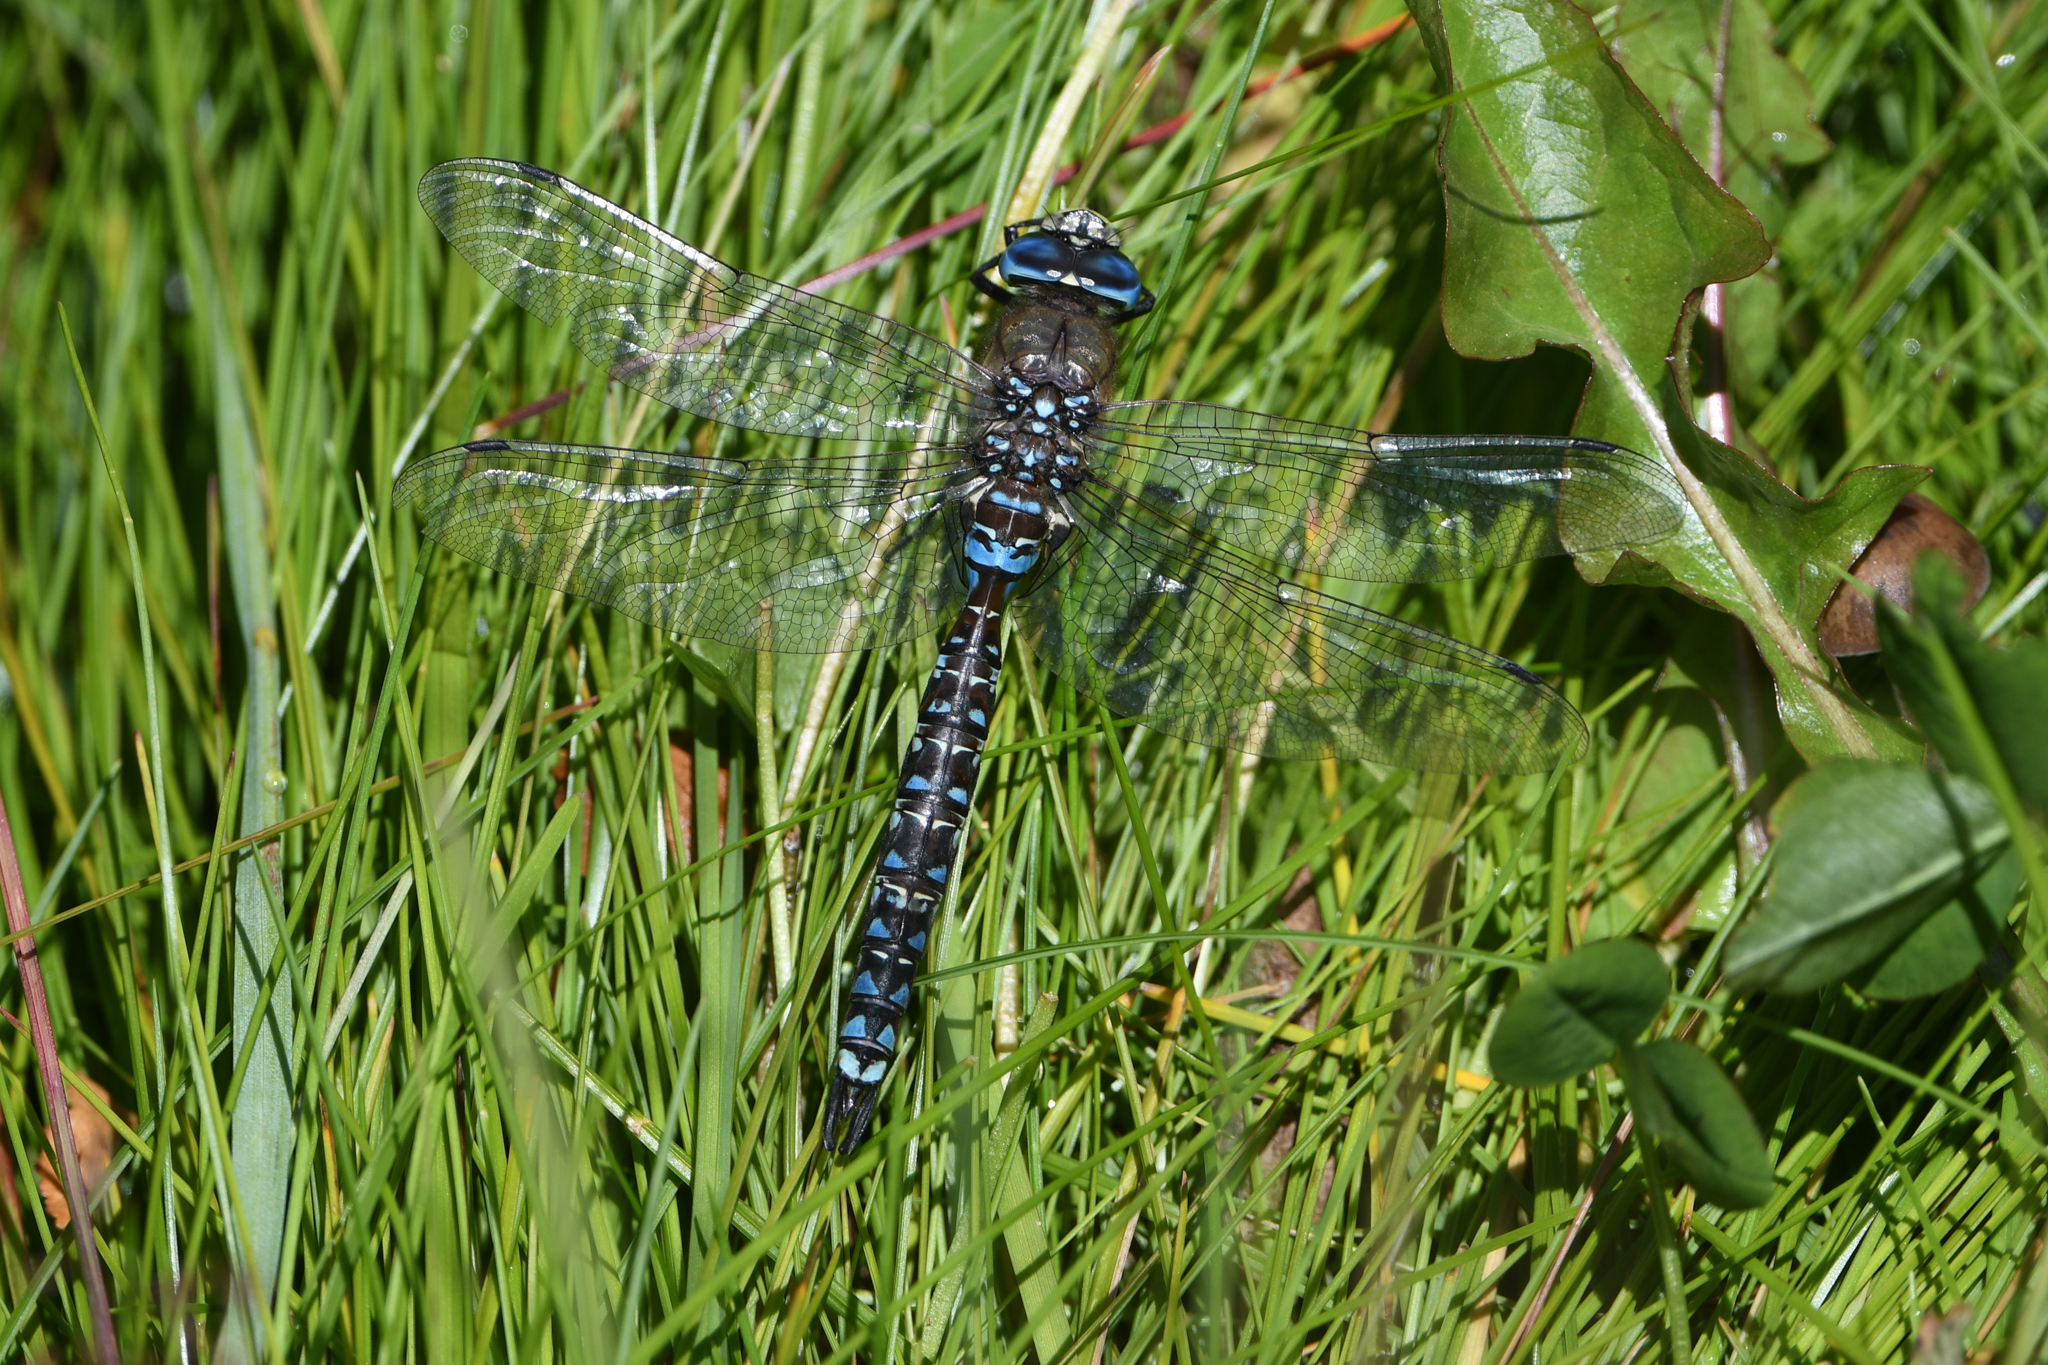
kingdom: Animalia
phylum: Arthropoda
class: Insecta
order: Odonata
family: Aeshnidae
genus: Rhionaeschna
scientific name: Rhionaeschna variegata
